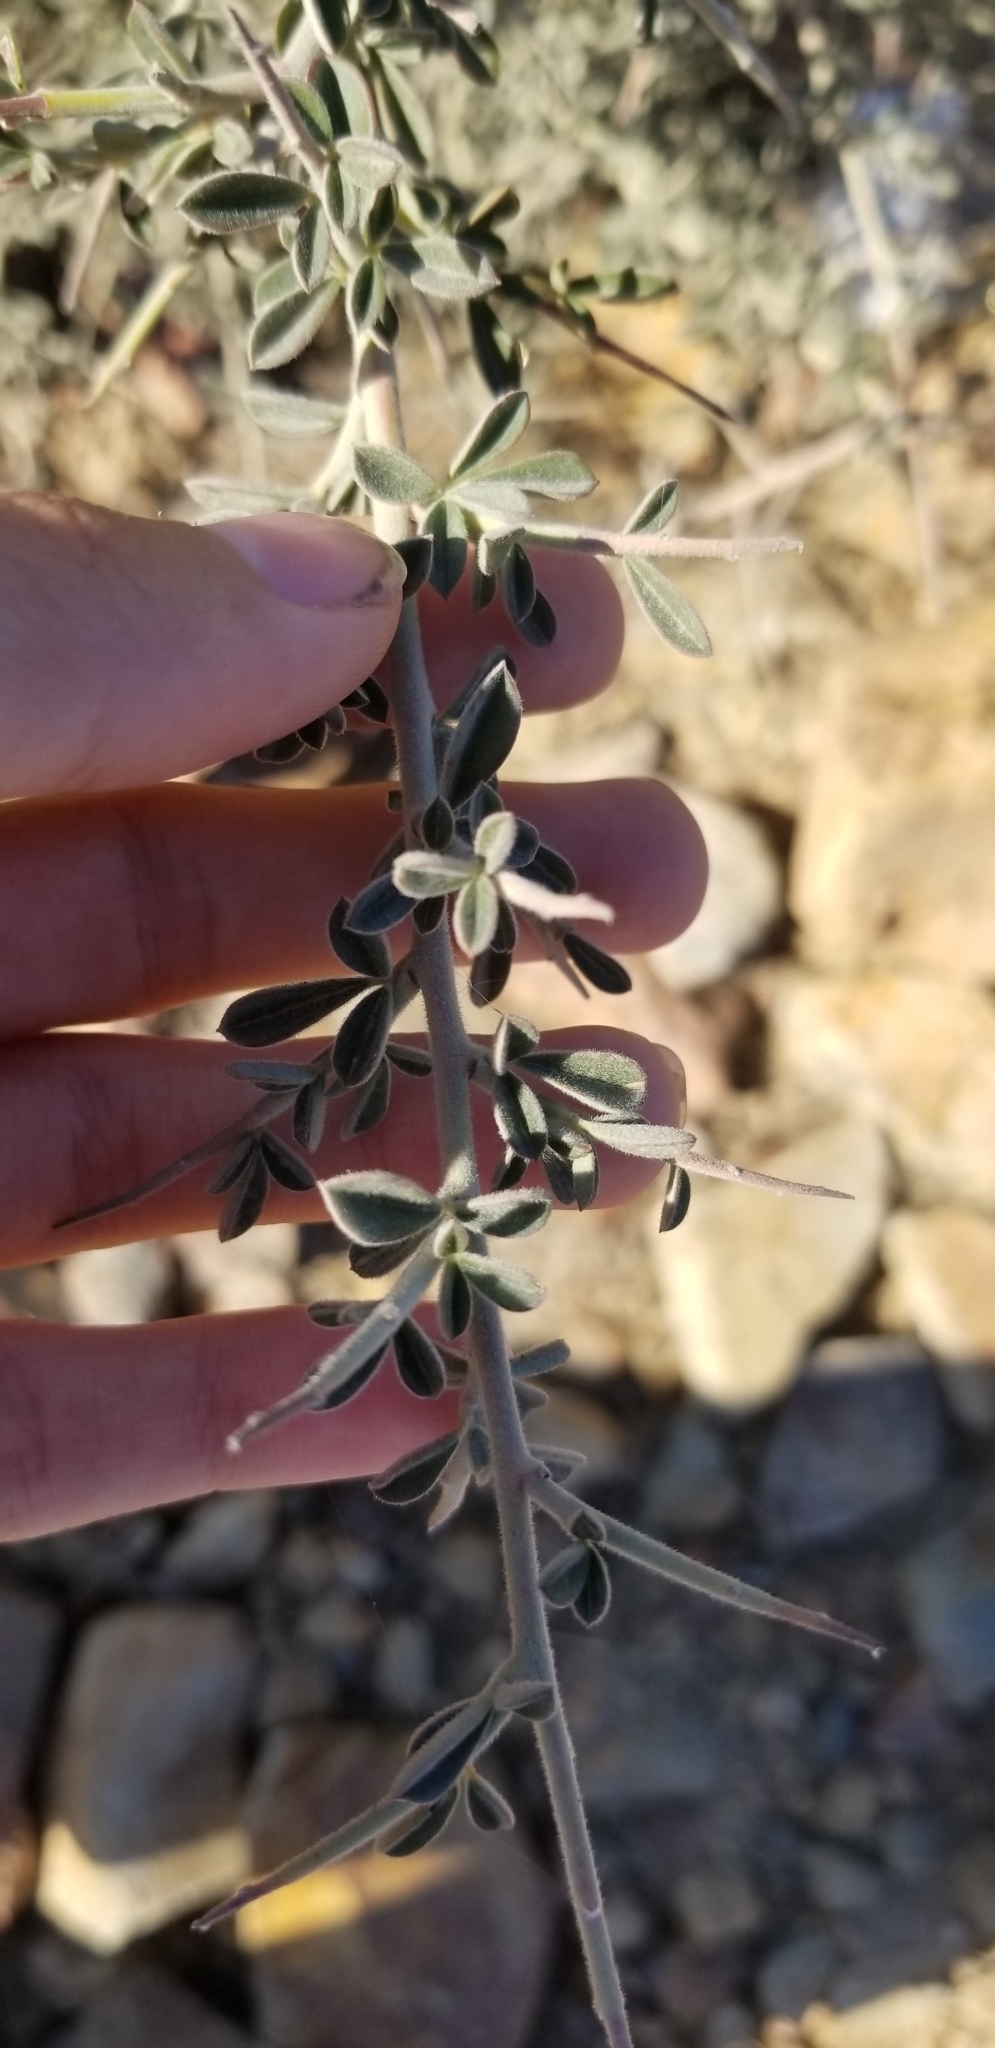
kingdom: Plantae
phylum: Tracheophyta
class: Magnoliopsida
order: Fabales
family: Fabaceae
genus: Pickeringia
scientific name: Pickeringia montana
